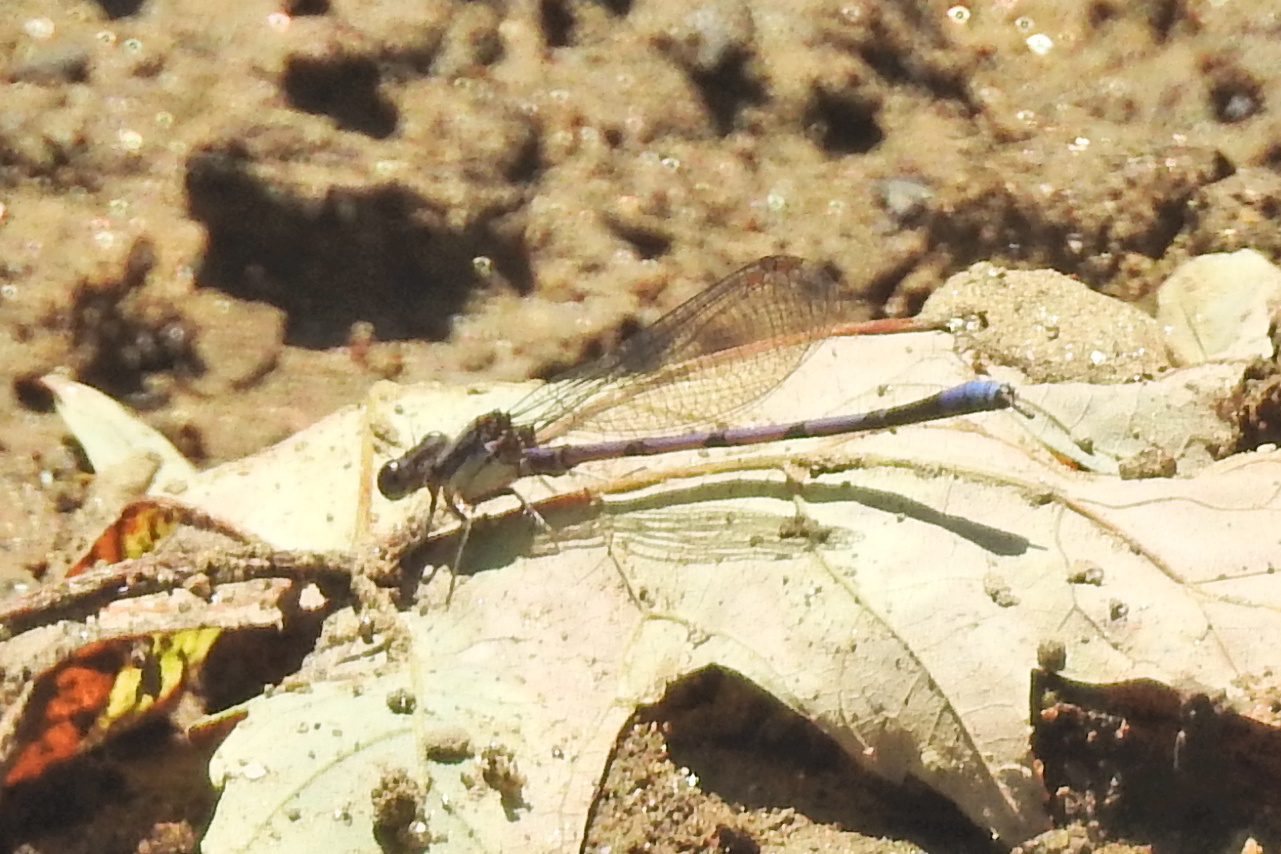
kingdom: Animalia
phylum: Arthropoda
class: Insecta
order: Odonata
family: Coenagrionidae
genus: Argia
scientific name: Argia fumipennis
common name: Variable dancer
